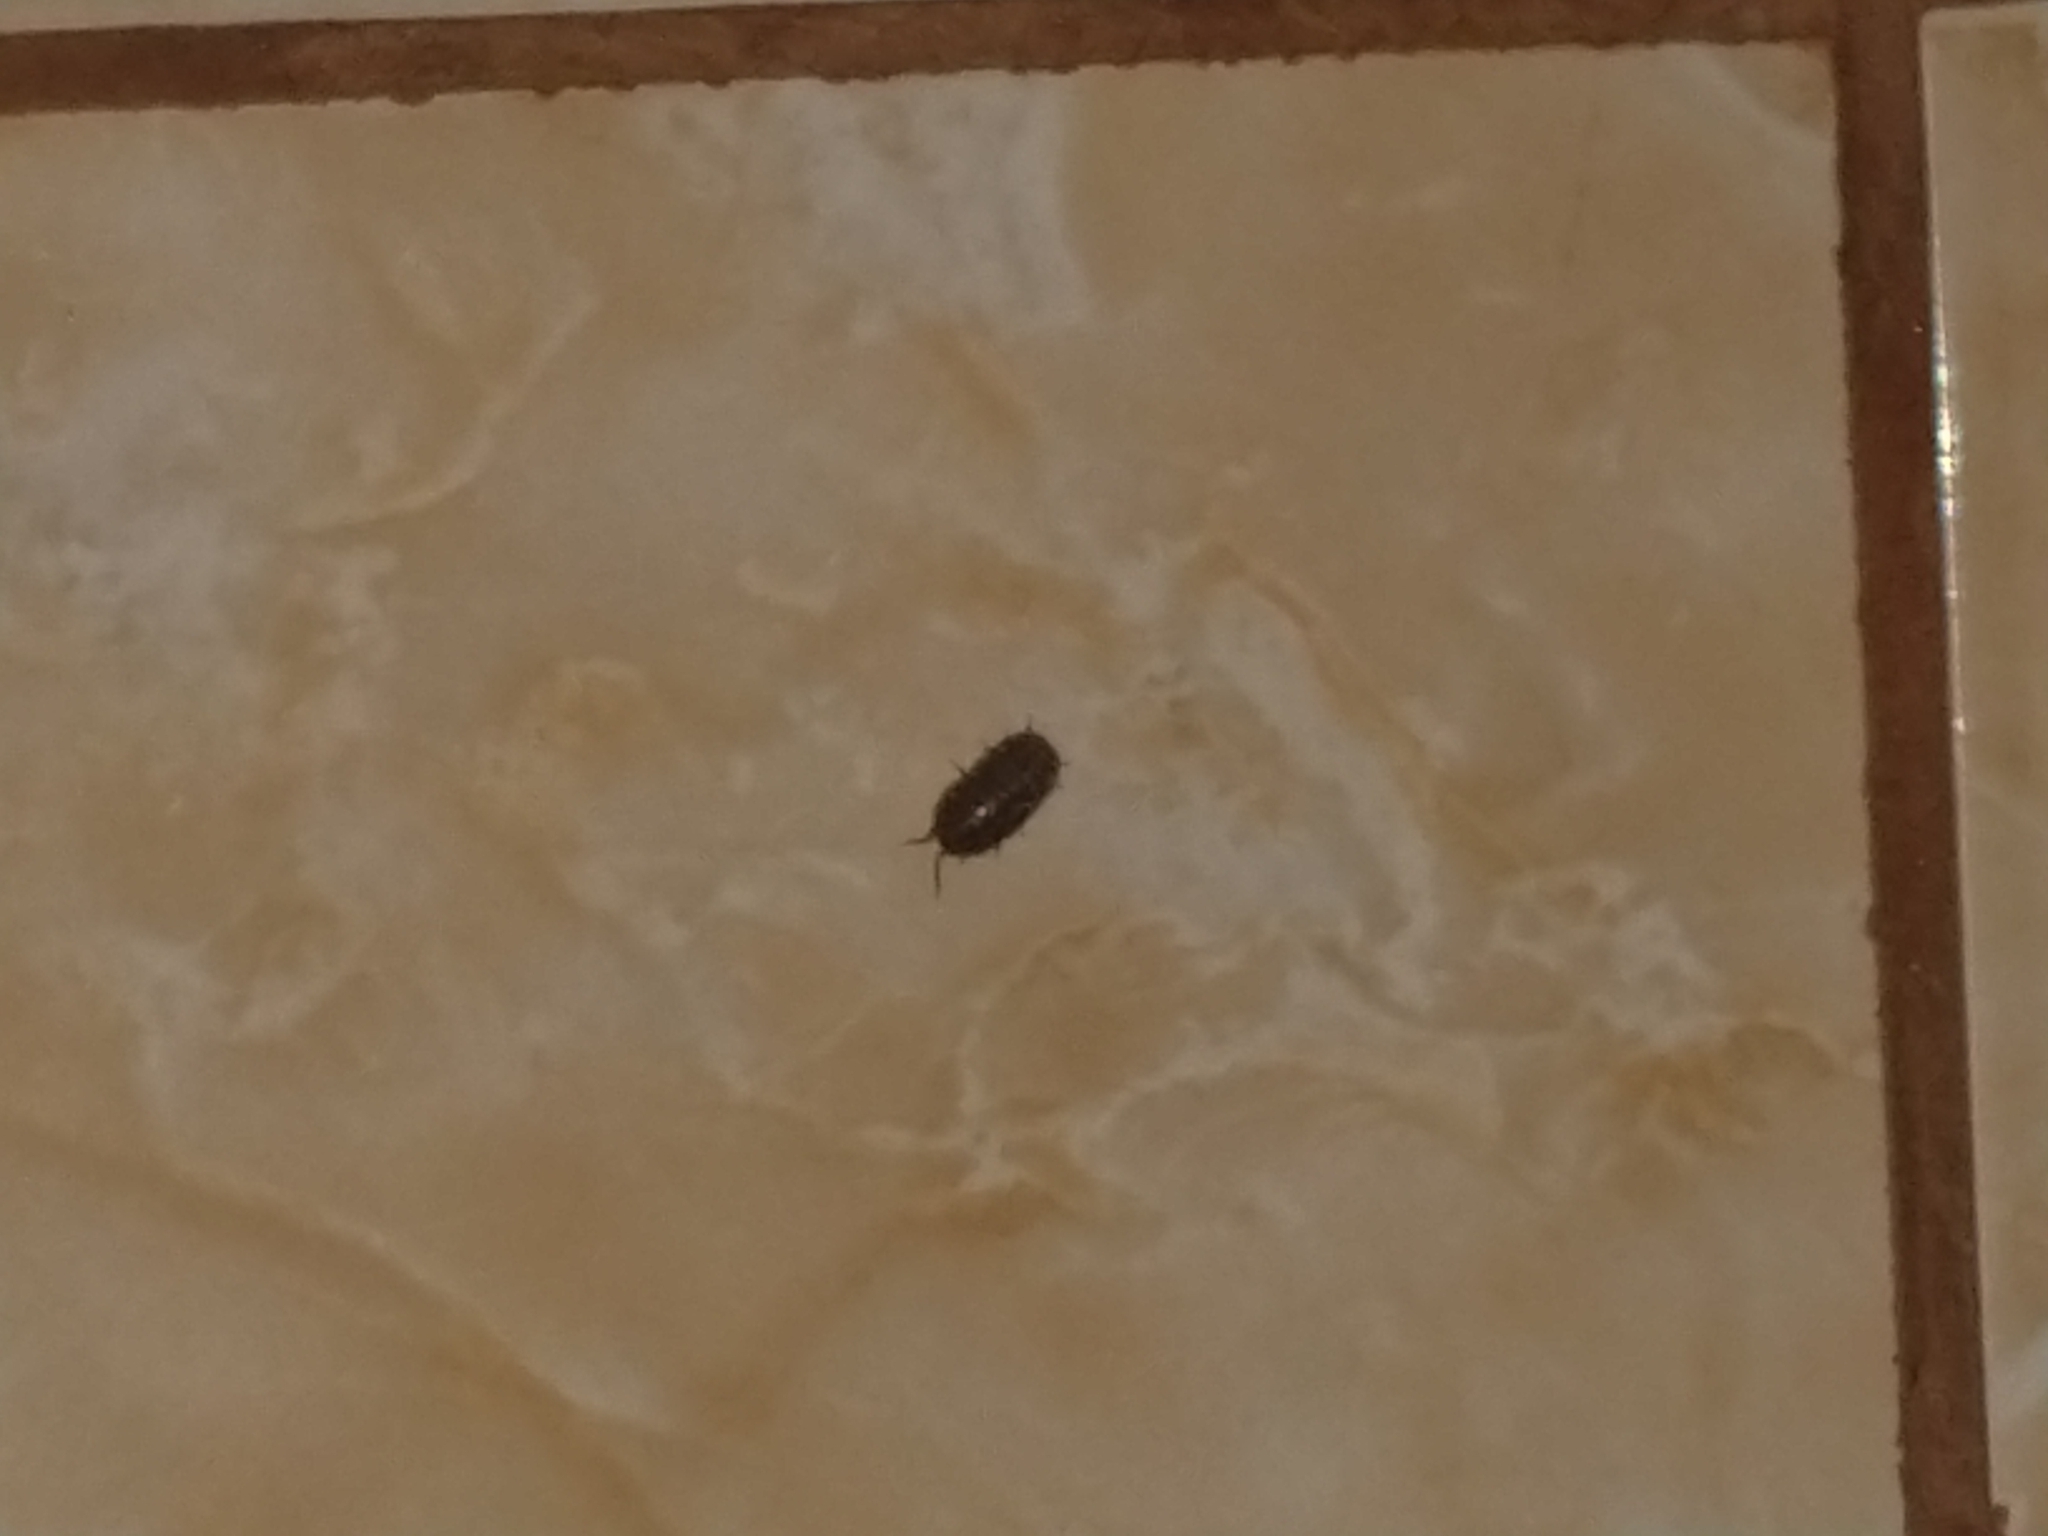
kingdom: Animalia
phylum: Arthropoda
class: Malacostraca
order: Isopoda
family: Armadillidiidae
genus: Armadillidium
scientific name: Armadillidium vulgare
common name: Common pill woodlouse
